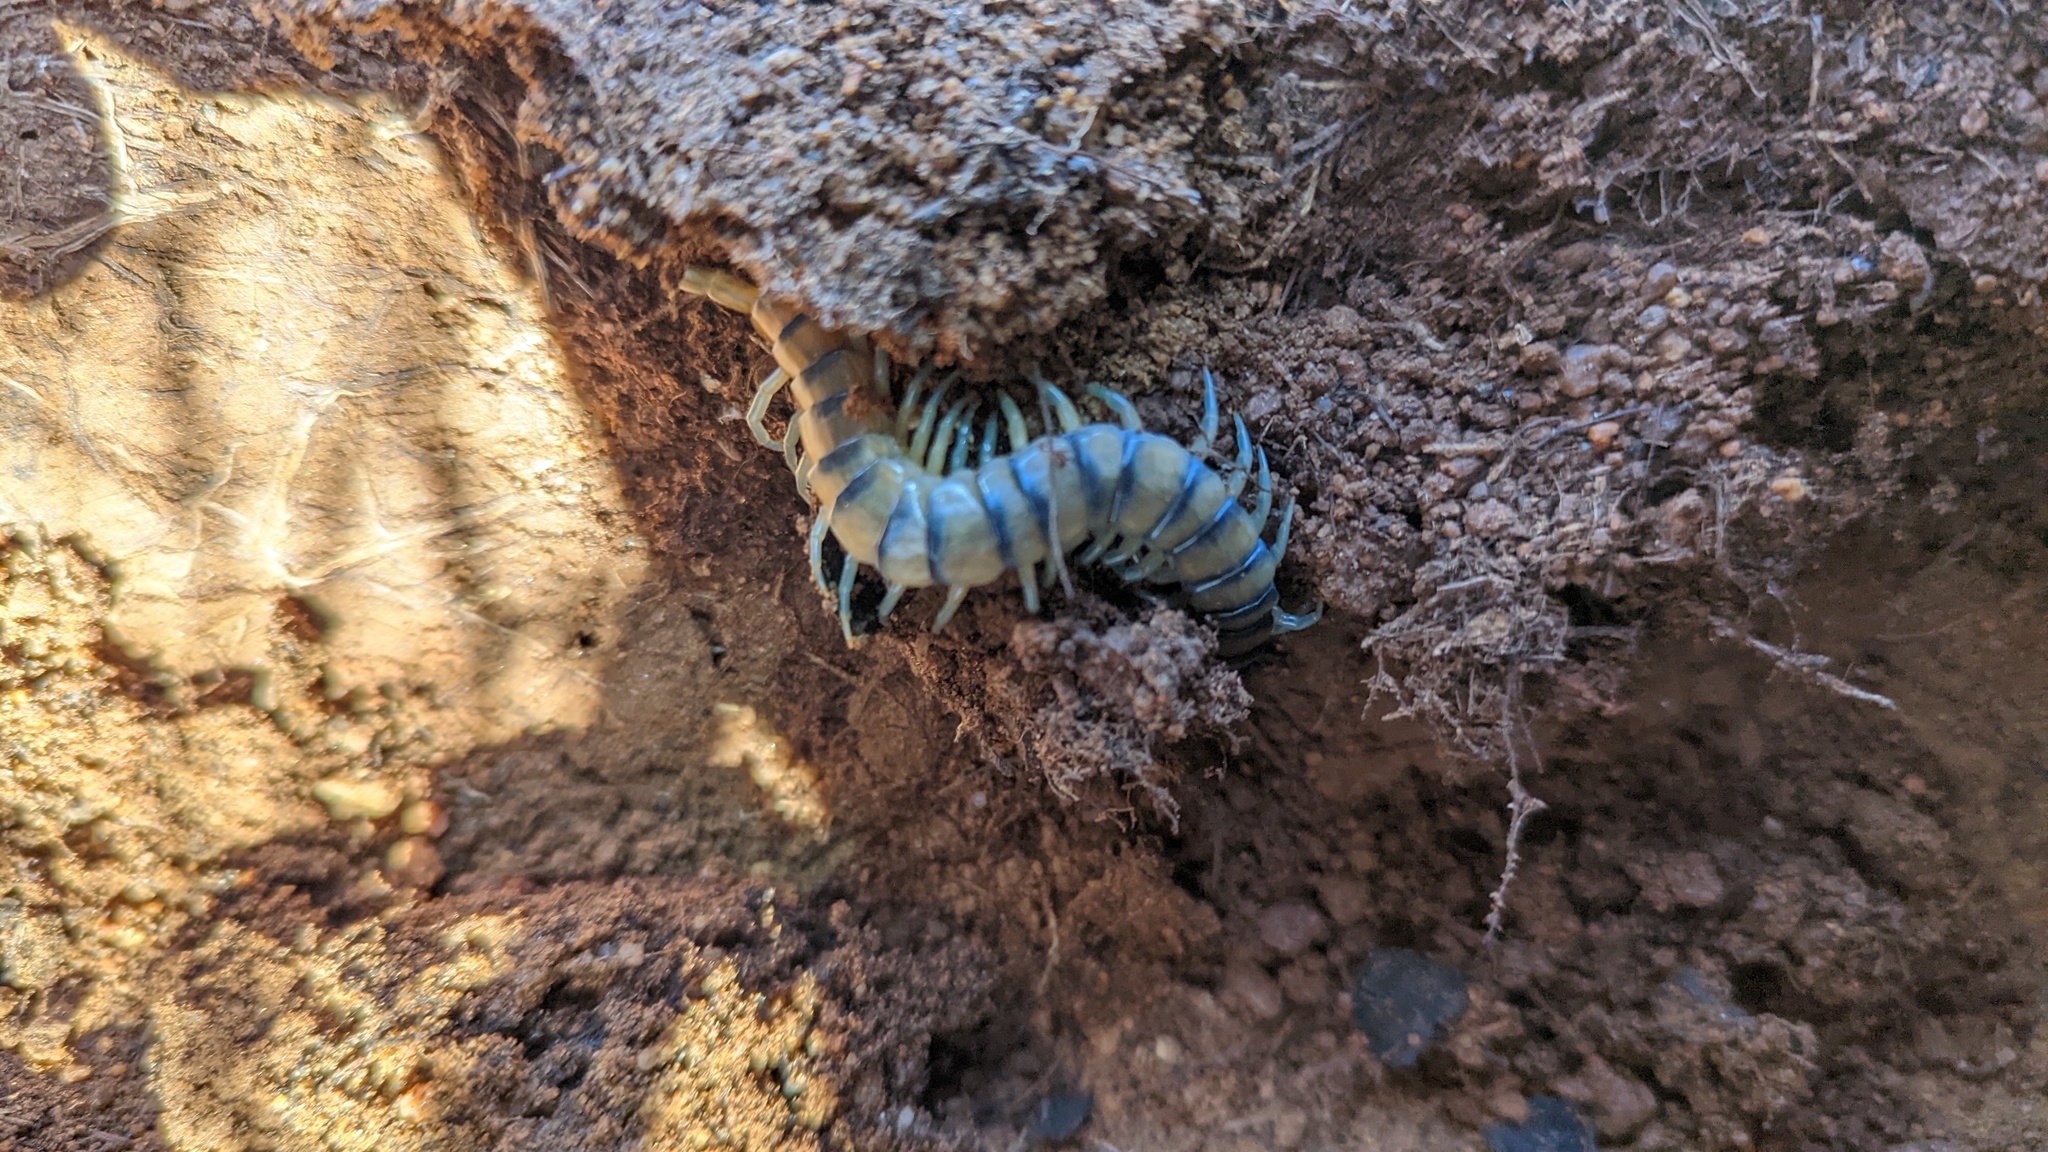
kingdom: Animalia
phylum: Arthropoda
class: Chilopoda
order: Scolopendromorpha
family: Scolopendridae
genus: Scolopendra
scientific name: Scolopendra polymorpha
